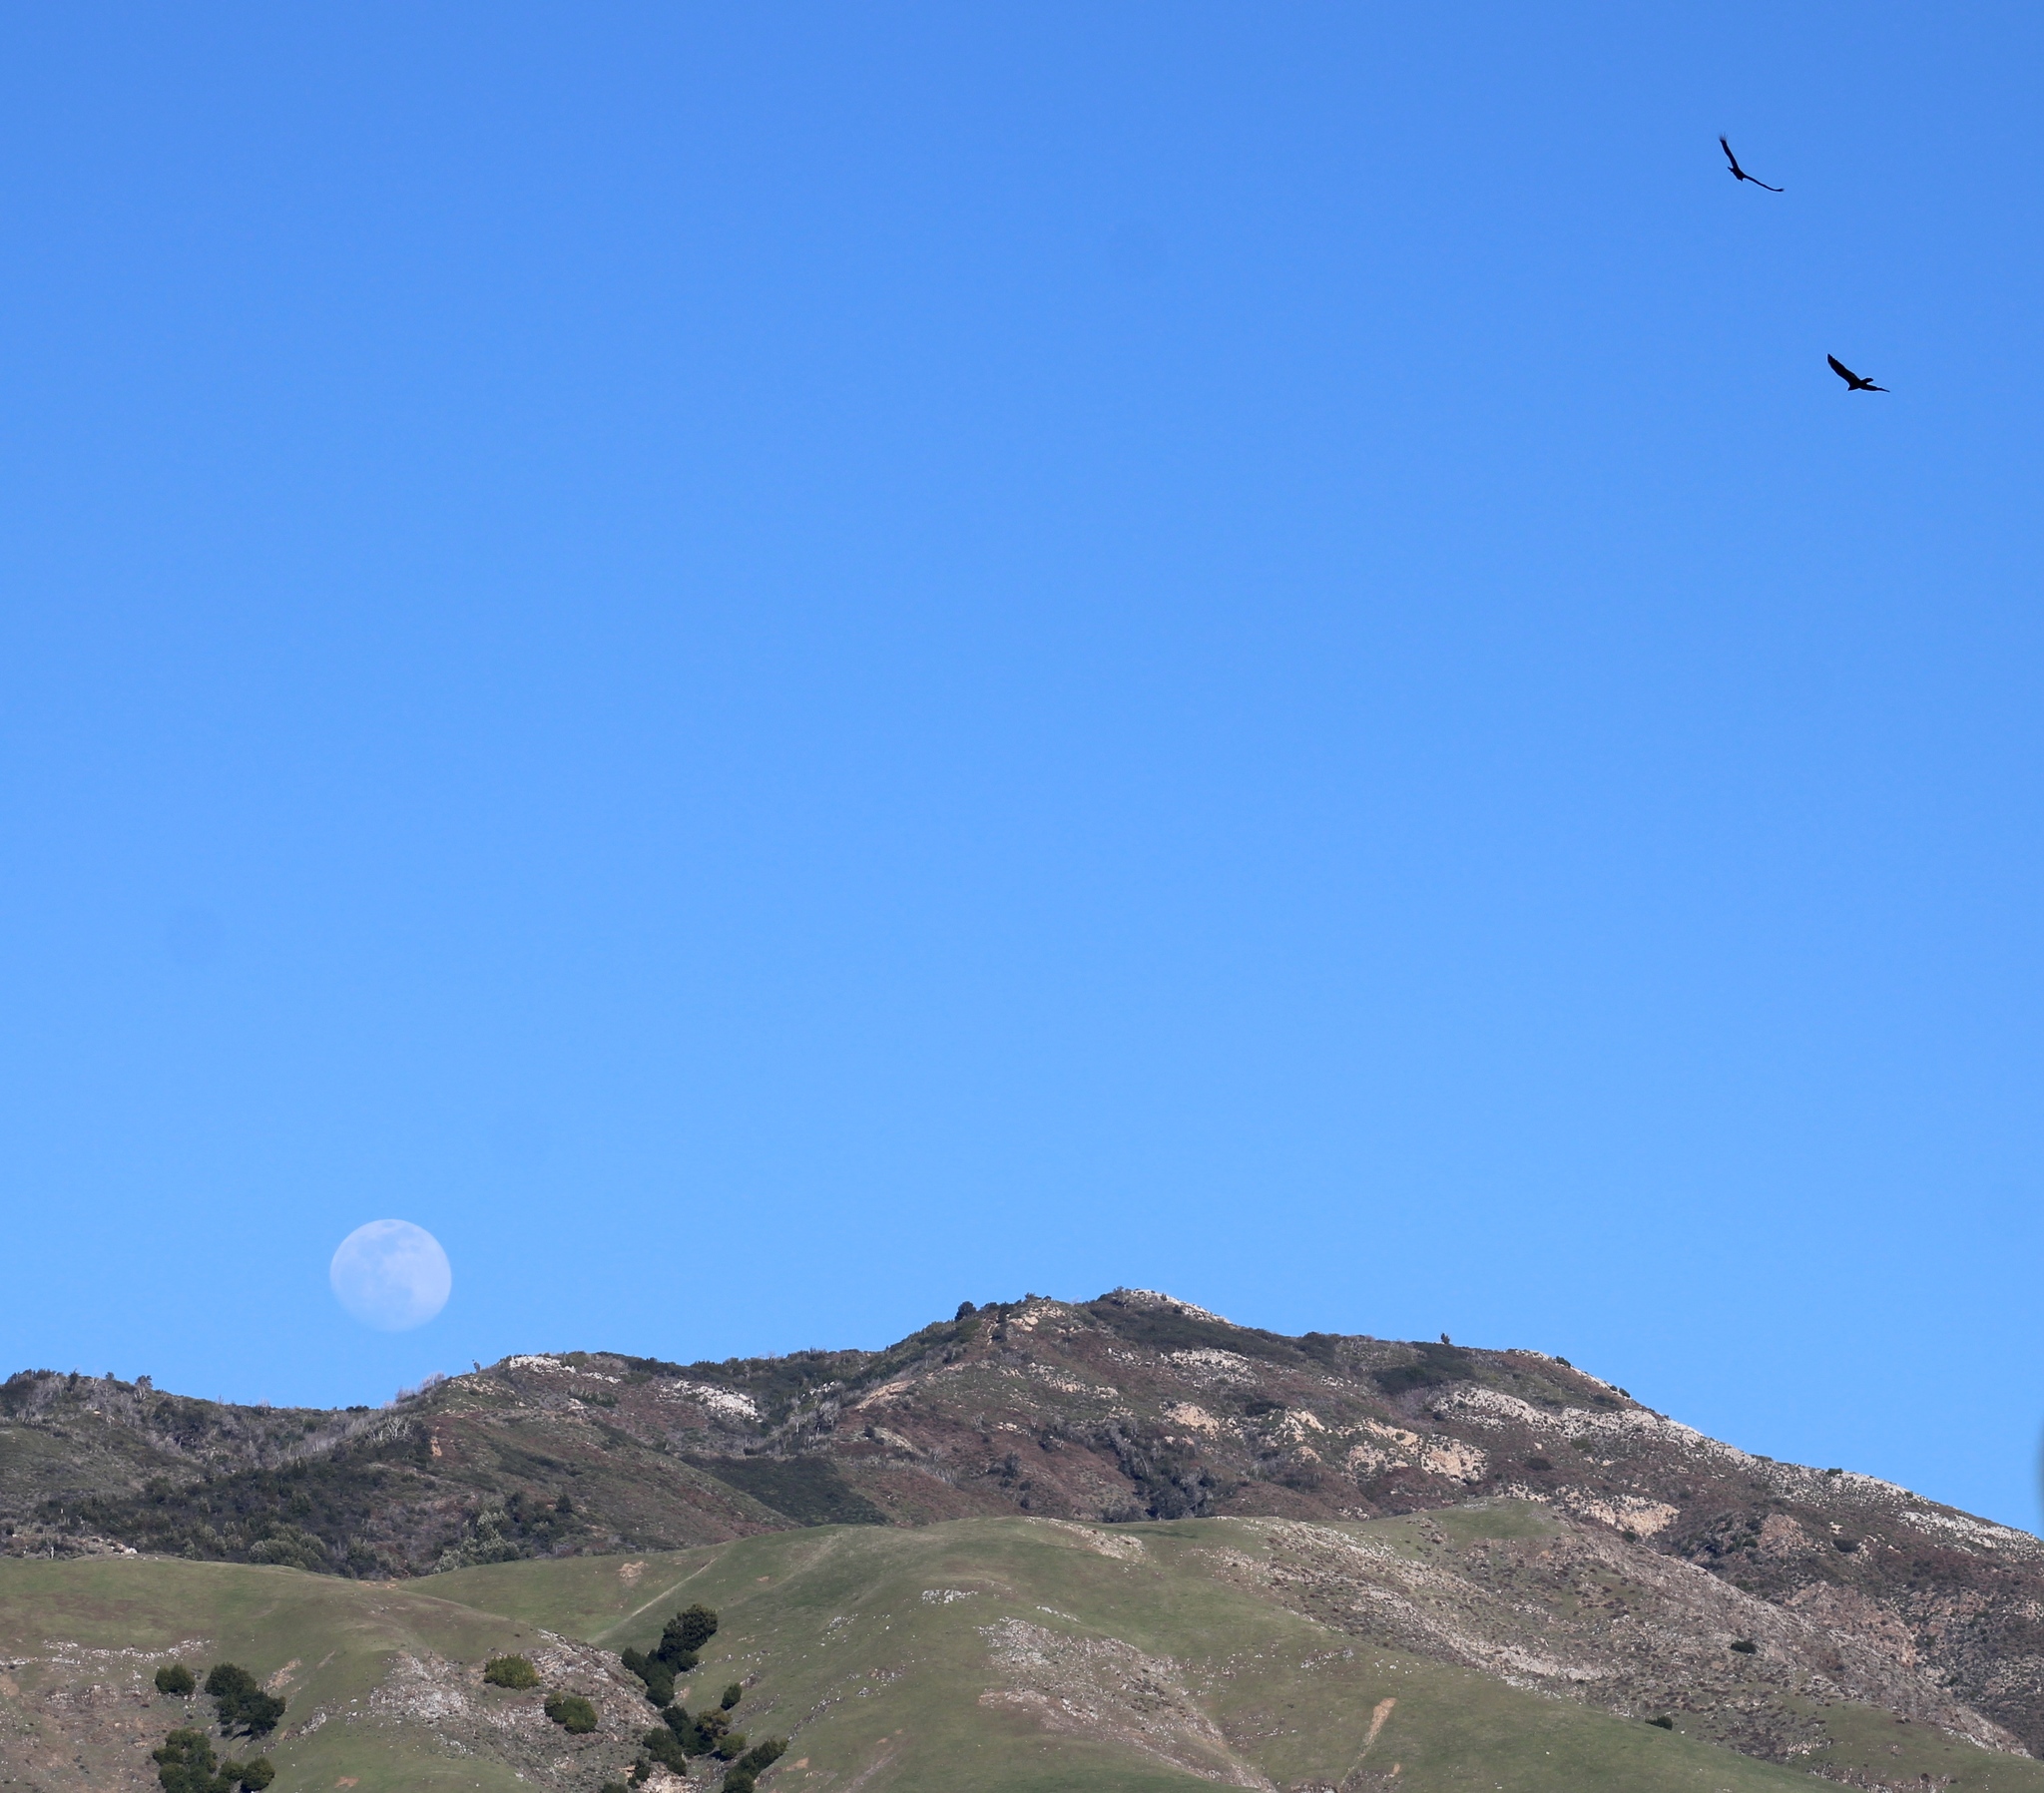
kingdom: Animalia
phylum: Chordata
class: Aves
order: Accipitriformes
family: Cathartidae
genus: Cathartes
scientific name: Cathartes aura
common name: Turkey vulture
